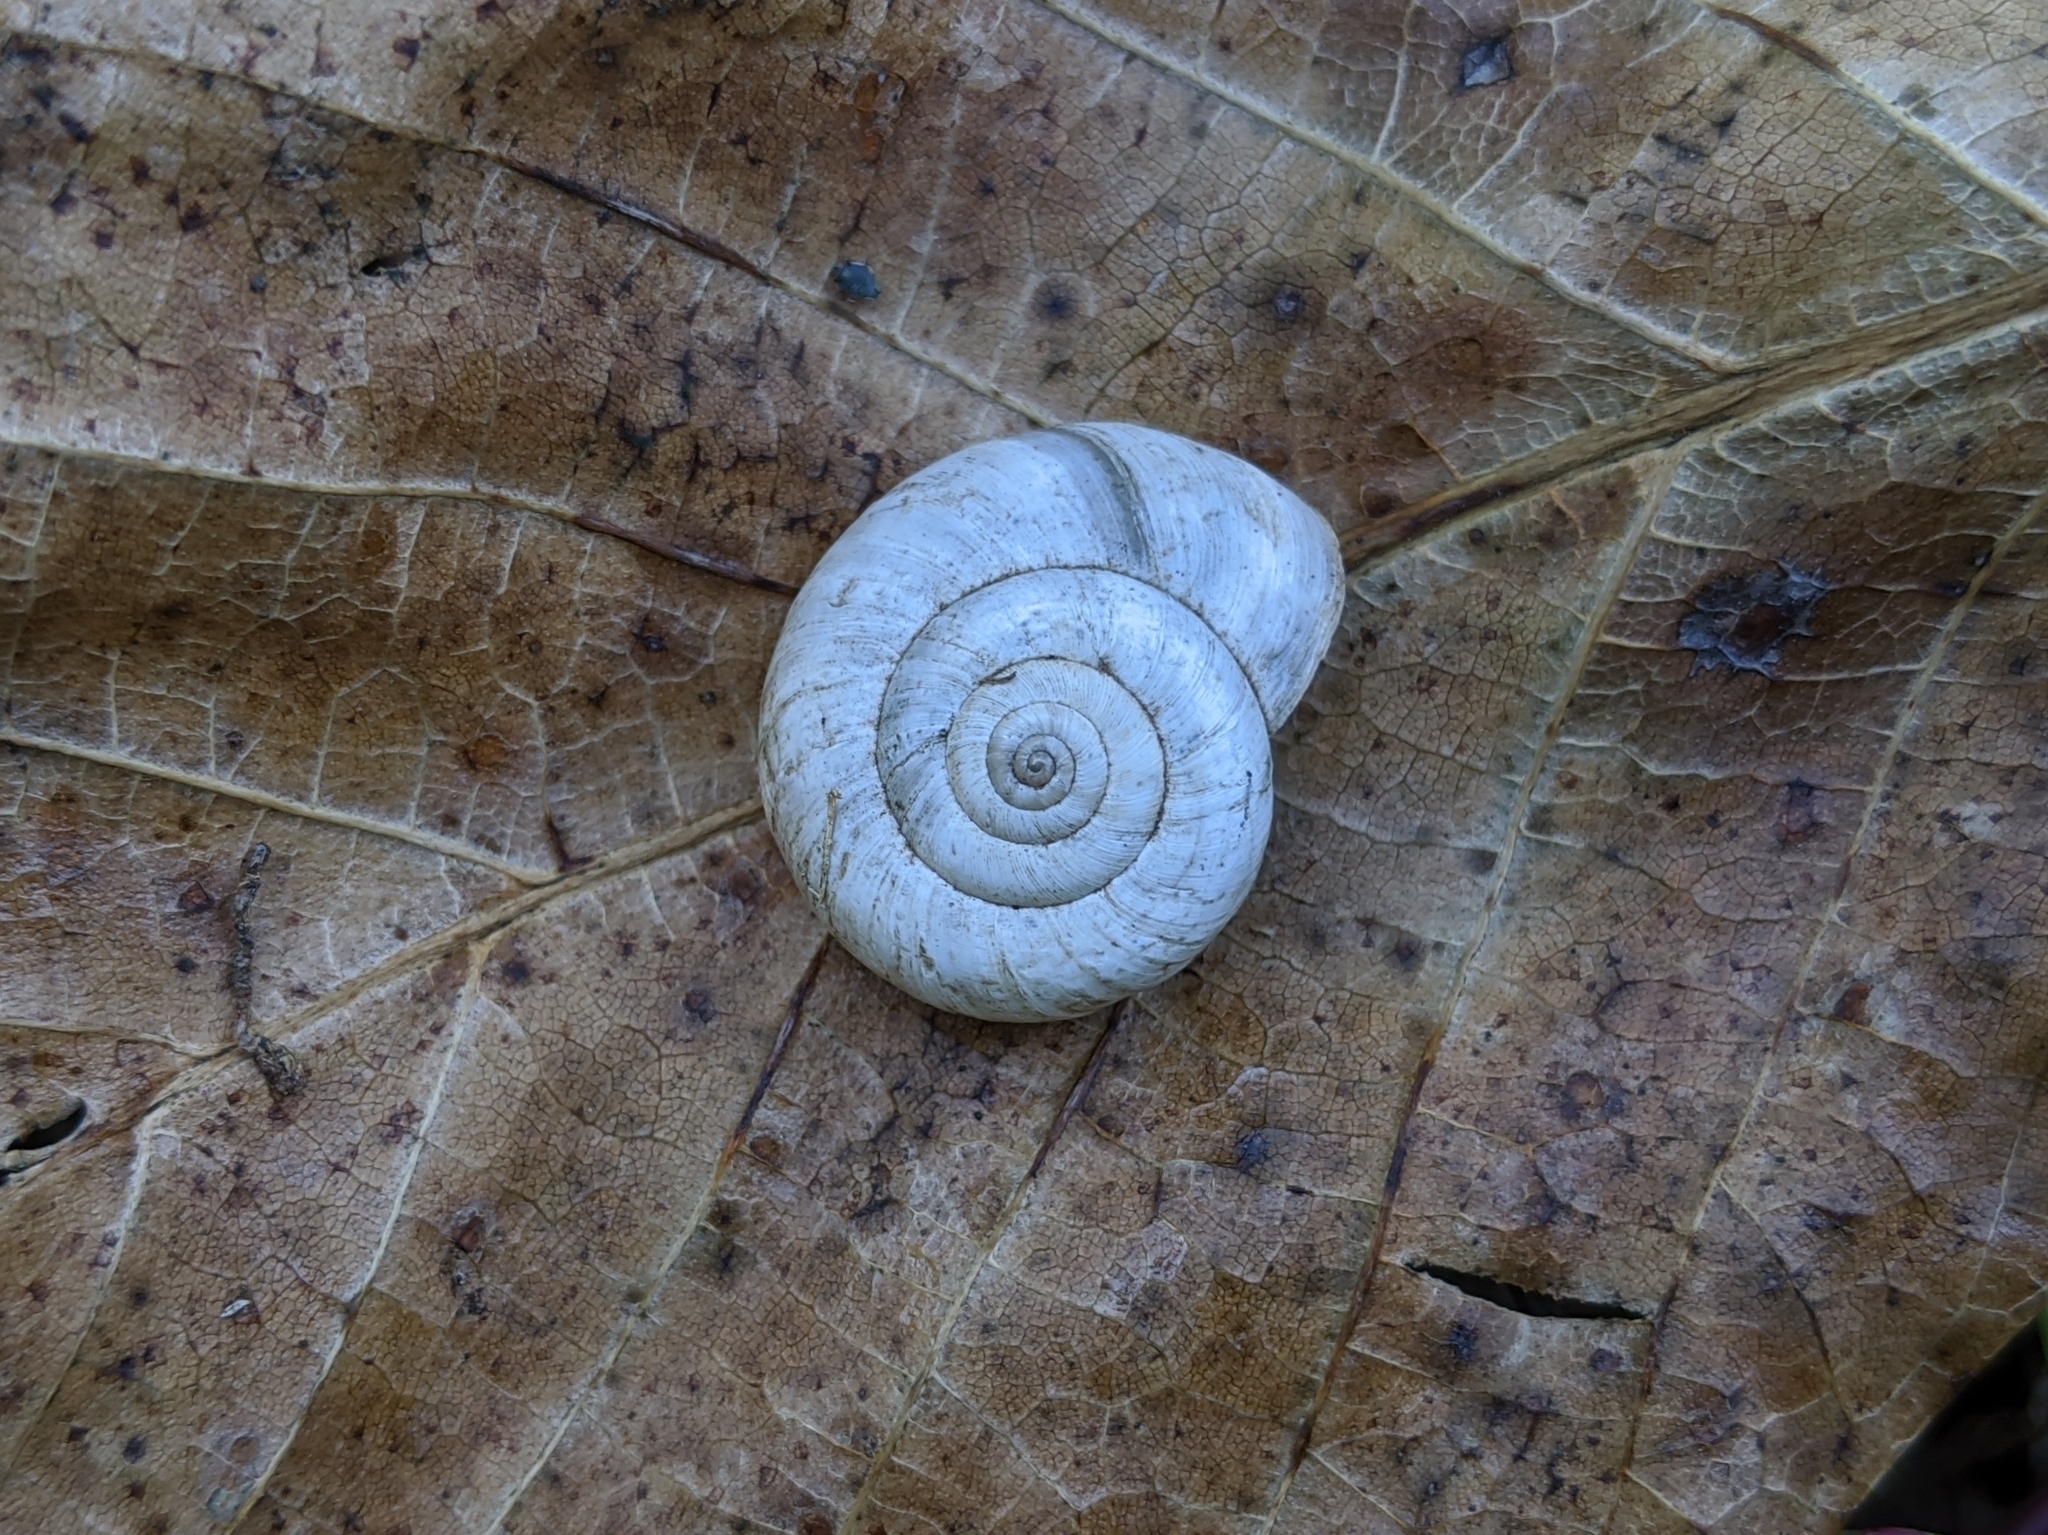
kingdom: Animalia
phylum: Mollusca
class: Gastropoda
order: Stylommatophora
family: Geomitridae
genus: Xerolenta
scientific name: Xerolenta obvia
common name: White heath snail
